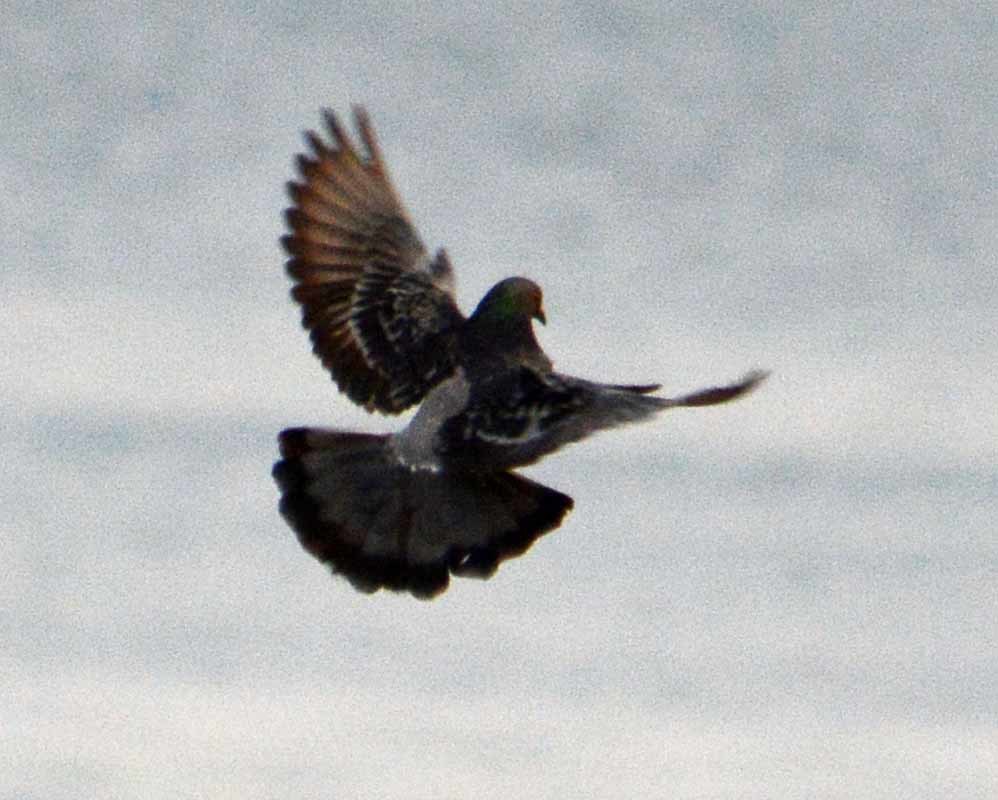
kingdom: Animalia
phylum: Chordata
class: Aves
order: Columbiformes
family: Columbidae
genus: Columba
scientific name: Columba livia
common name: Rock pigeon
